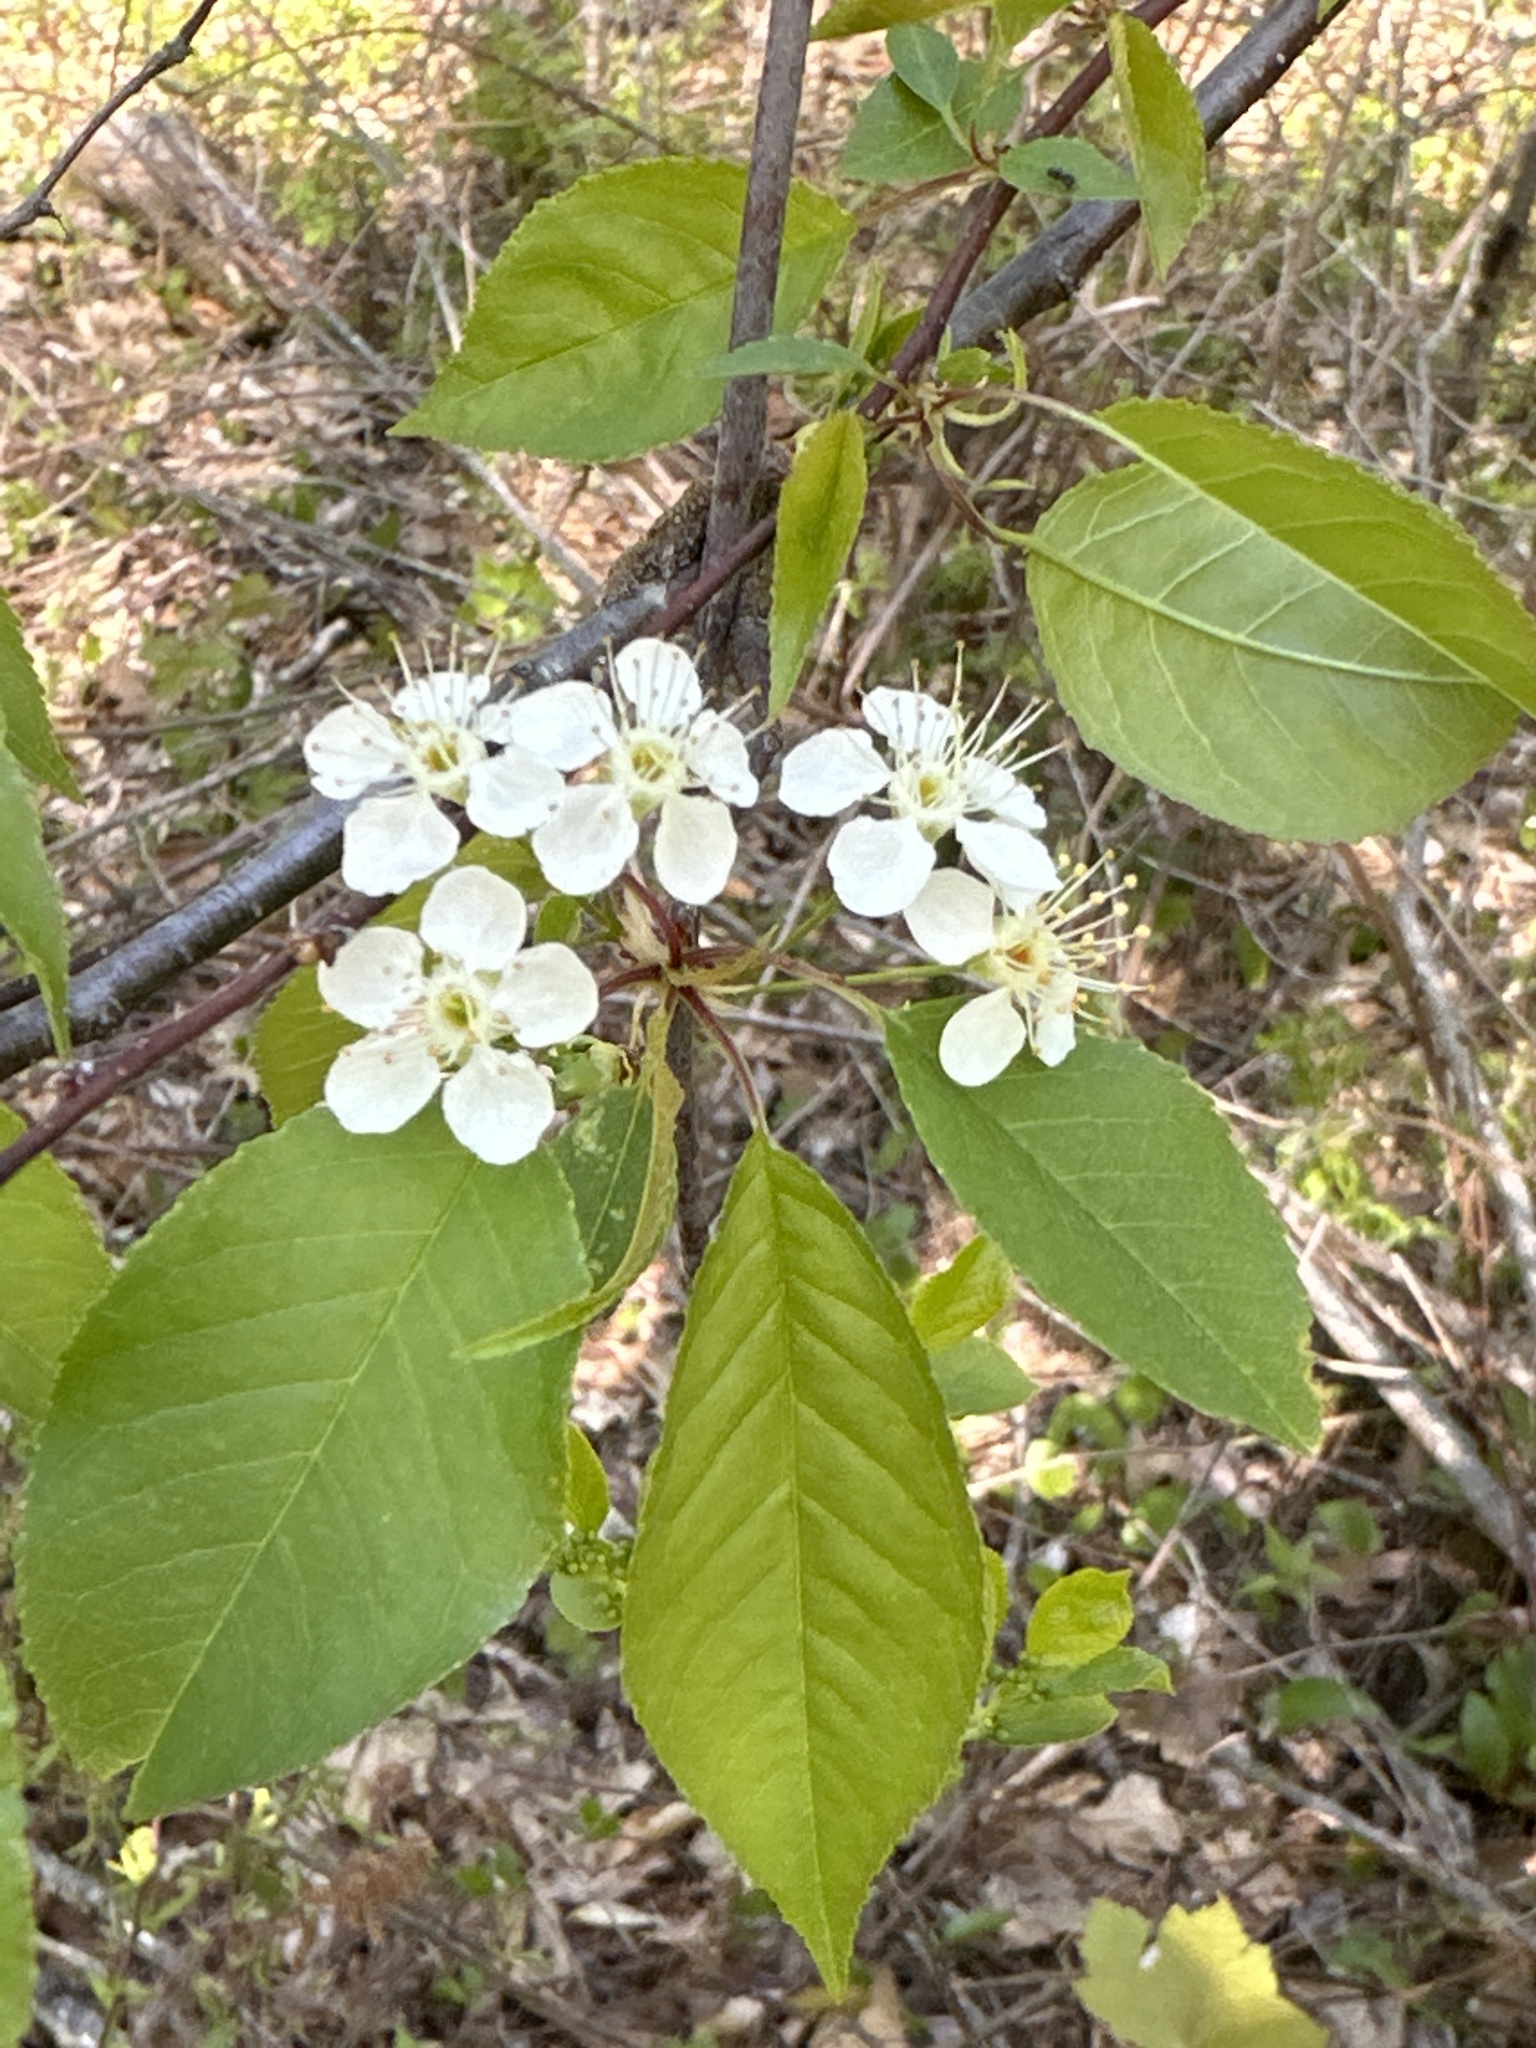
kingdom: Plantae
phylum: Tracheophyta
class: Magnoliopsida
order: Rosales
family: Rosaceae
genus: Prunus
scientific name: Prunus pensylvanica
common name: Pin cherry
